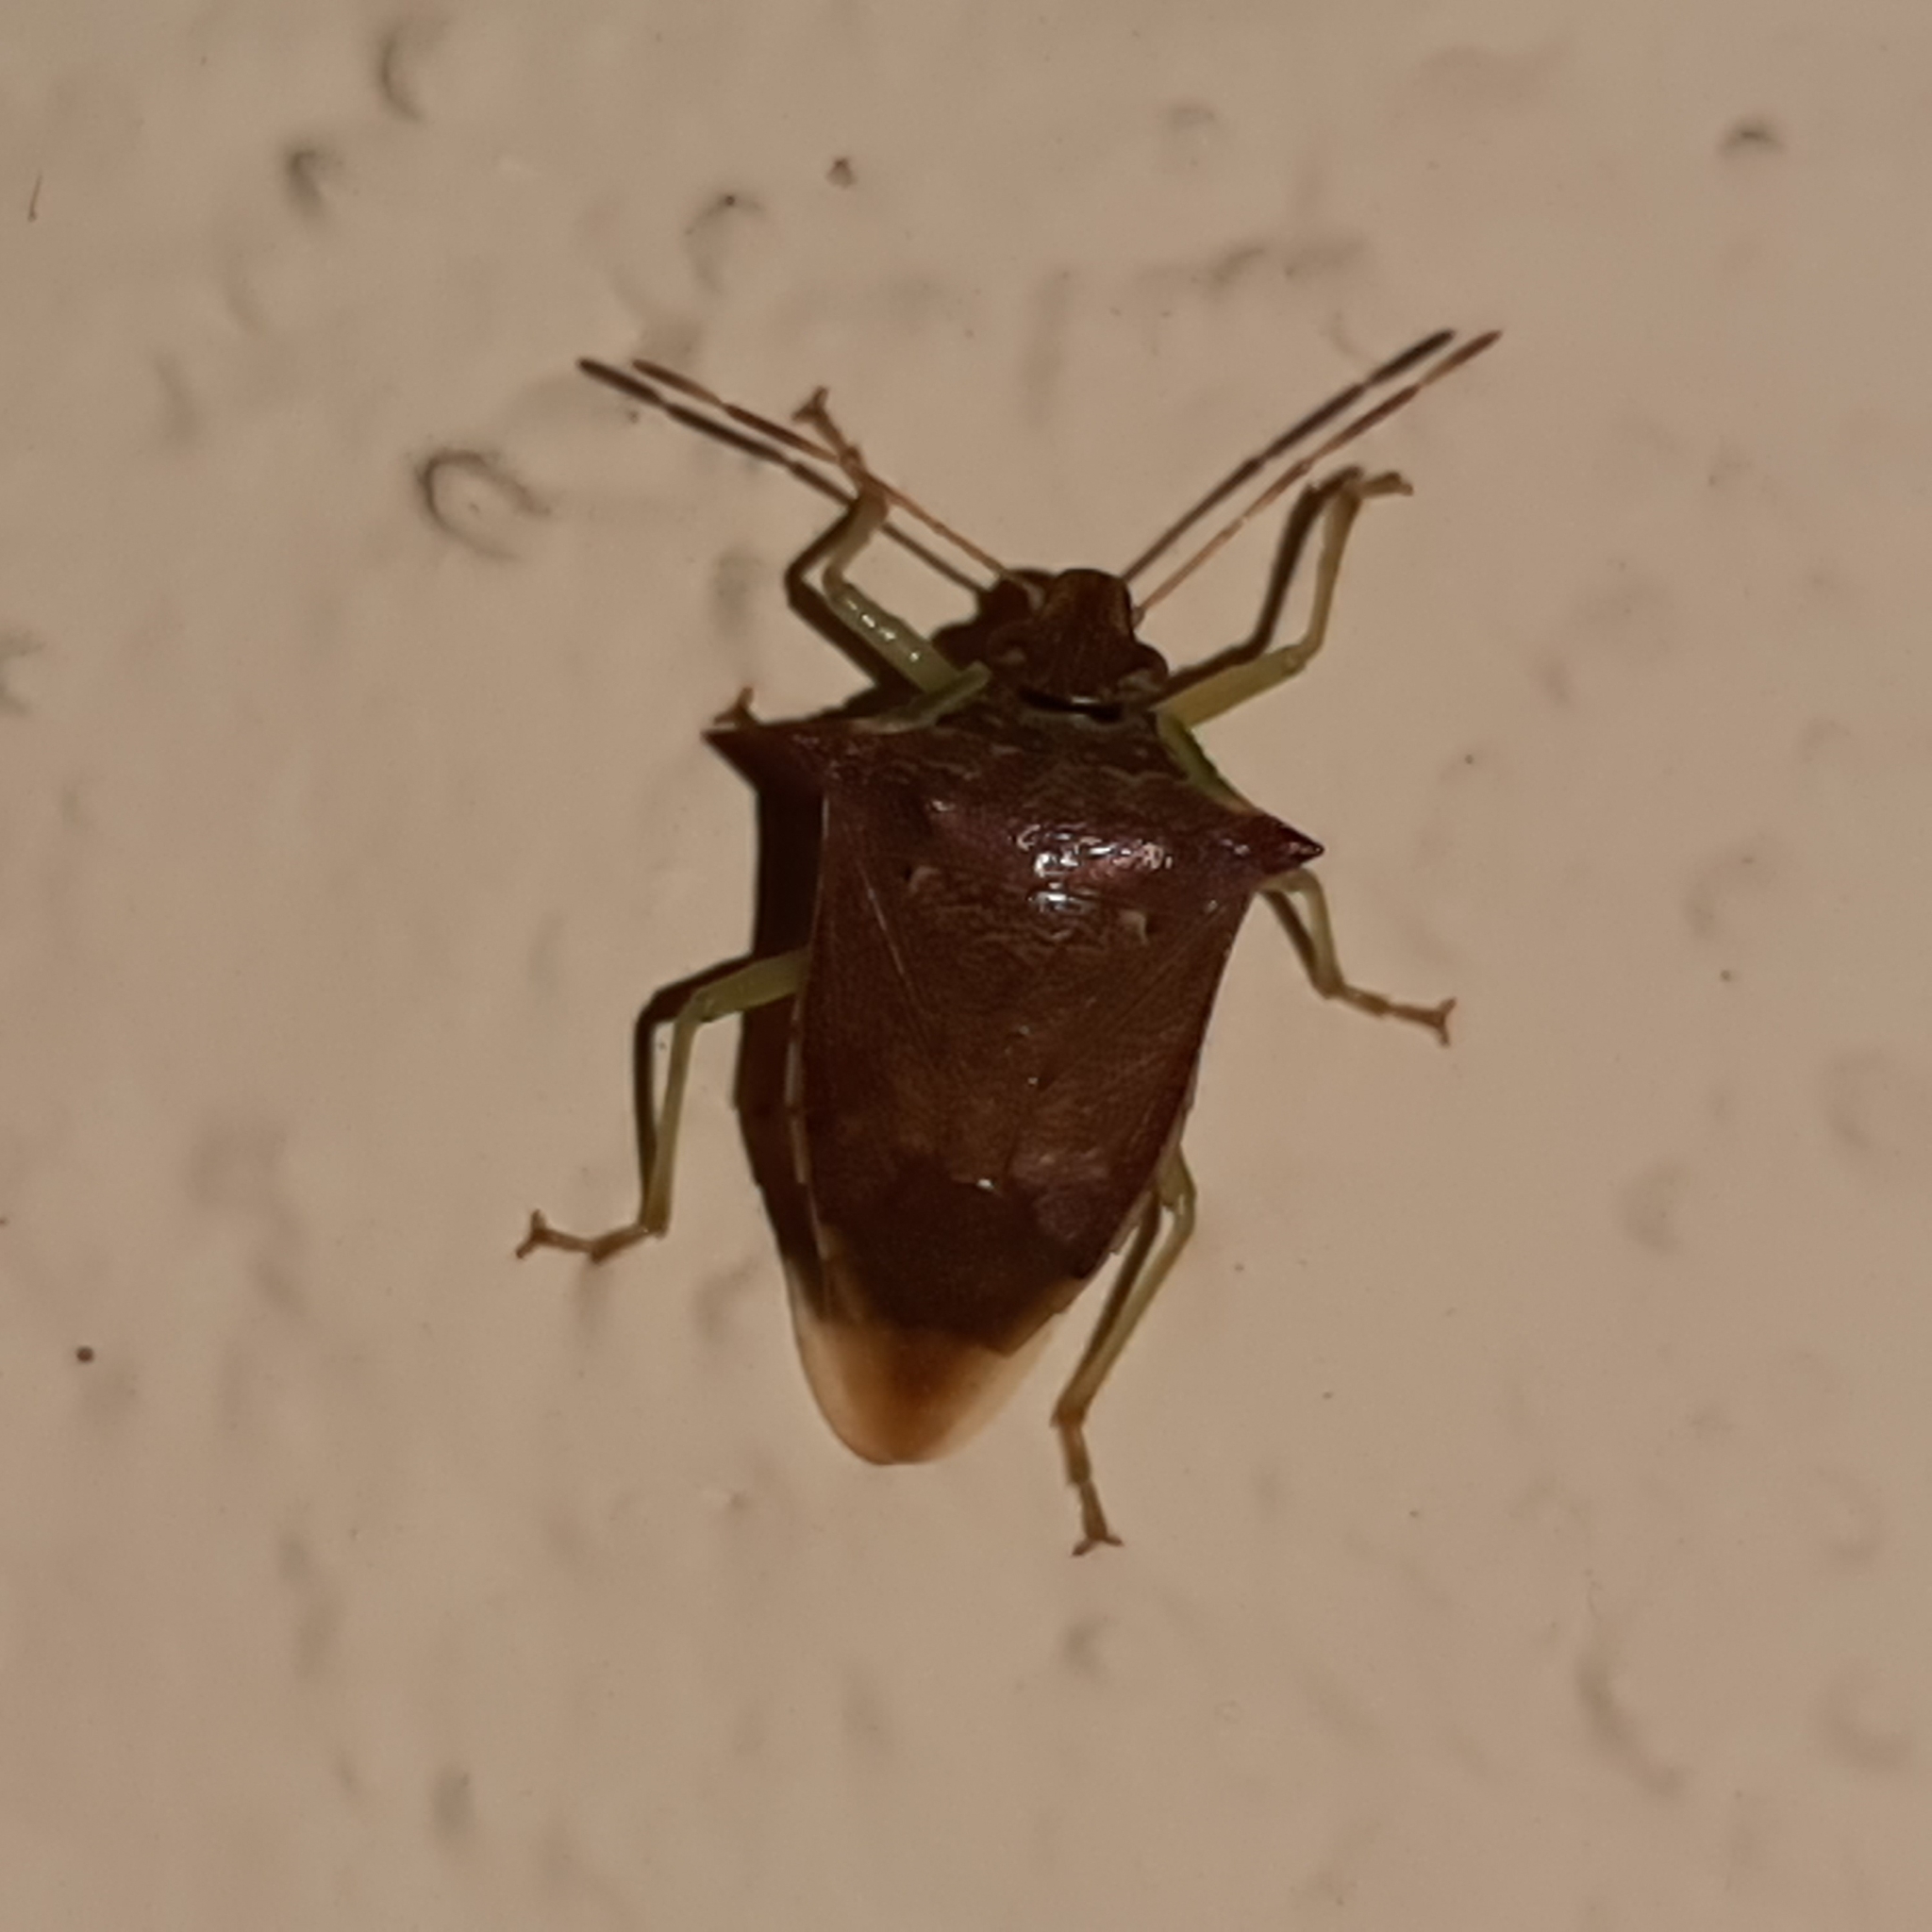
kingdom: Animalia
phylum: Arthropoda
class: Insecta
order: Hemiptera
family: Pentatomidae
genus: Podisus
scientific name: Podisus
